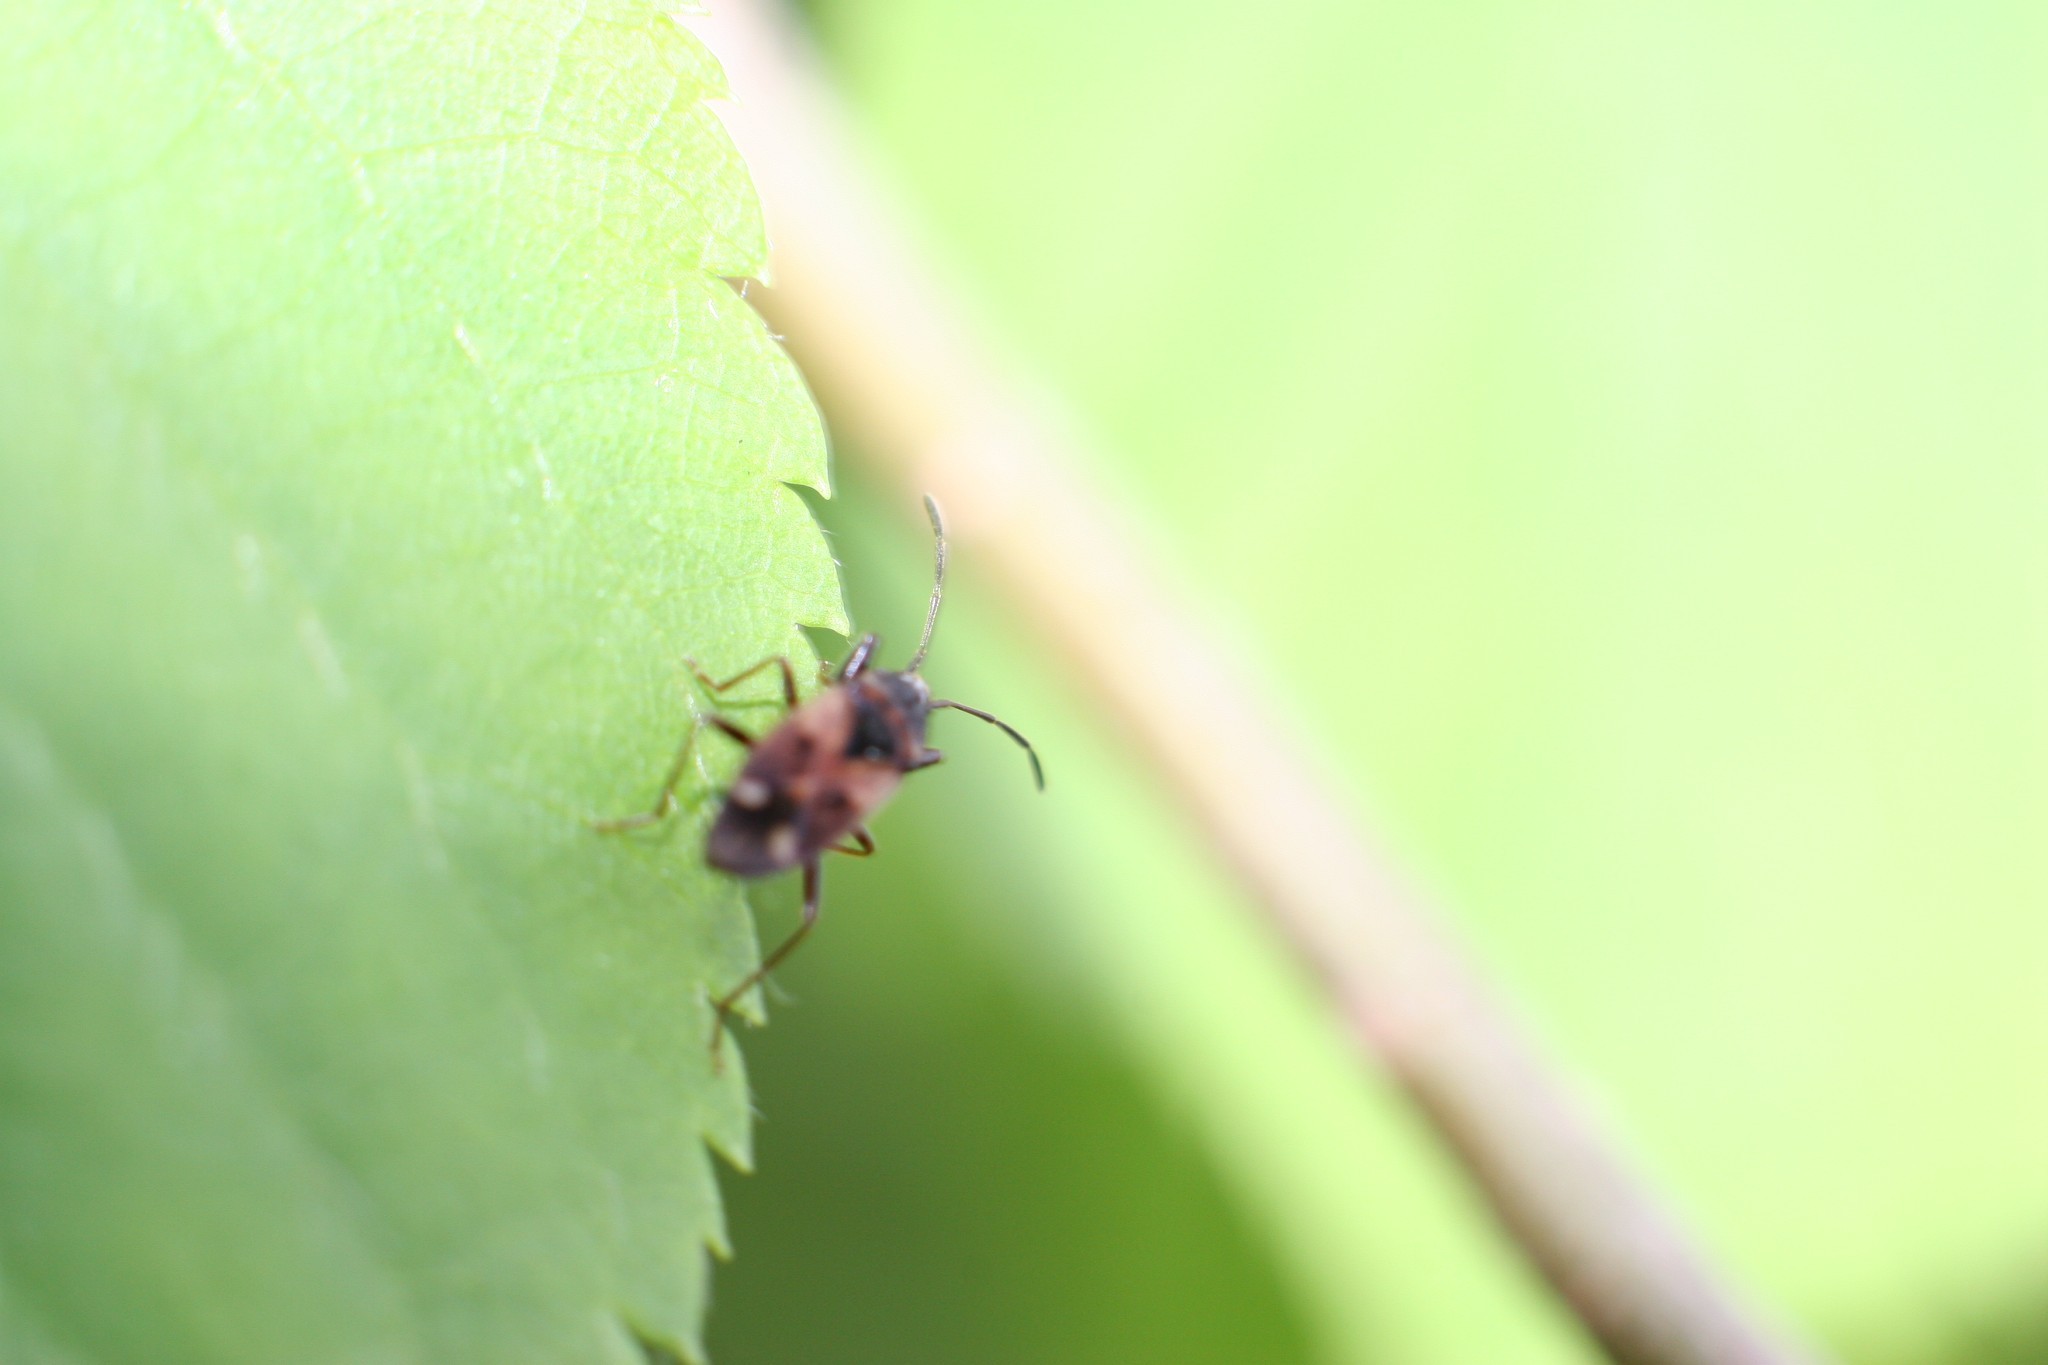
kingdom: Animalia
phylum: Arthropoda
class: Insecta
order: Hemiptera
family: Rhyparochromidae
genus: Eremocoris
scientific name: Eremocoris ferus
